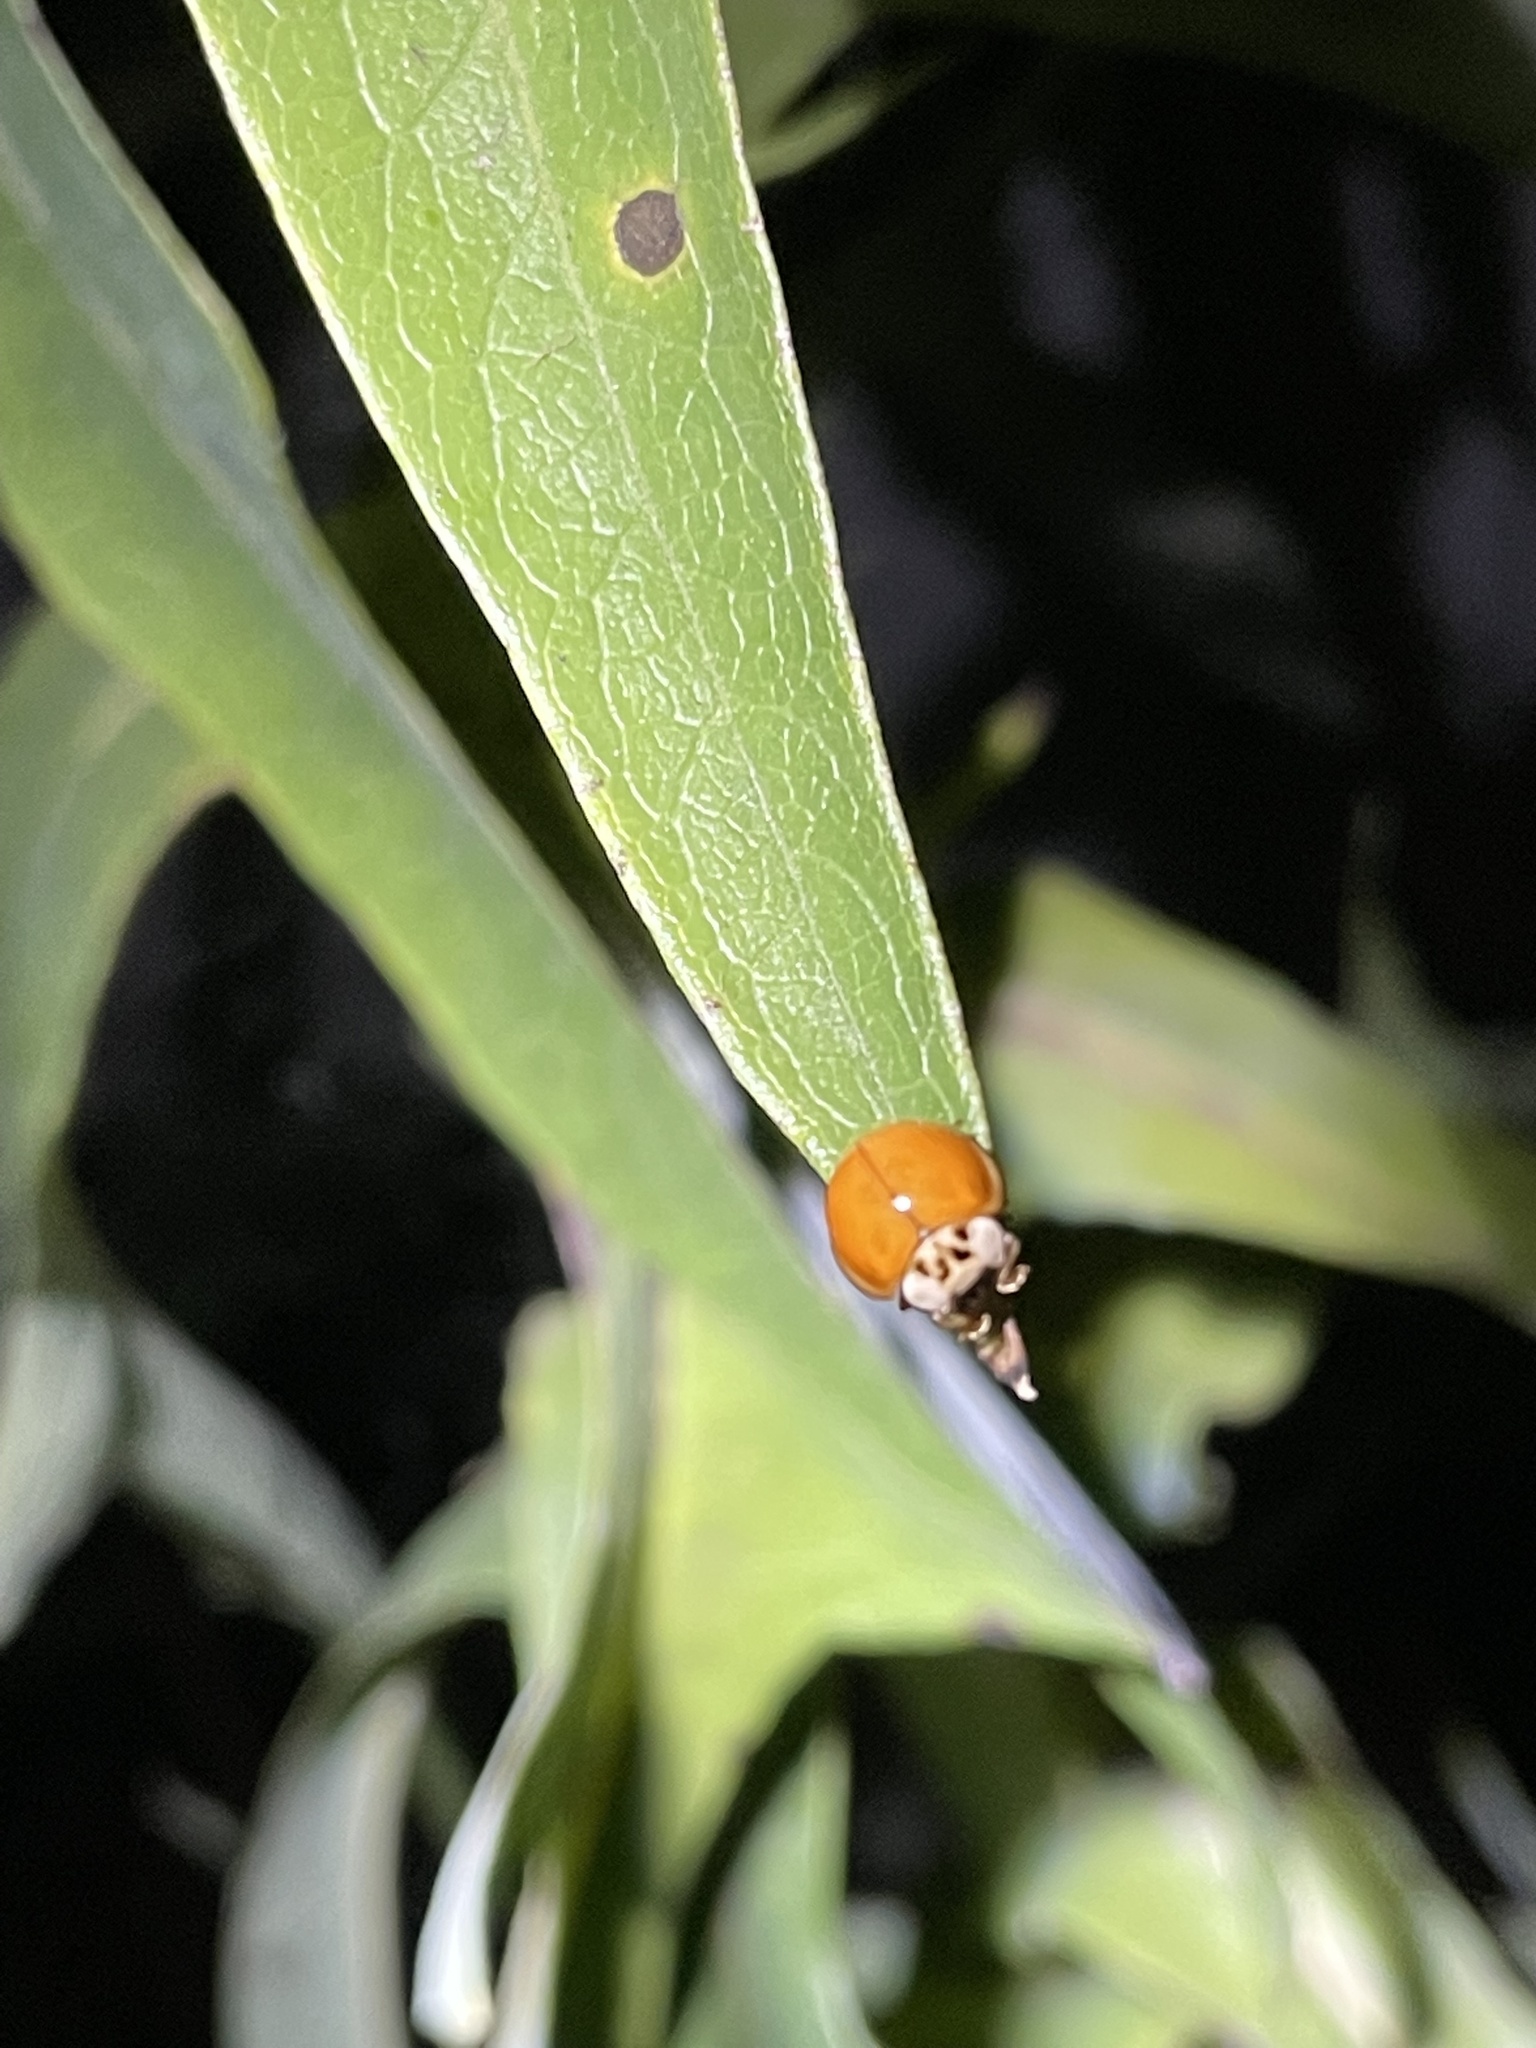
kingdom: Animalia
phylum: Arthropoda
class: Insecta
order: Coleoptera
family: Coccinellidae
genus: Harmonia
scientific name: Harmonia axyridis
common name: Harlequin ladybird
